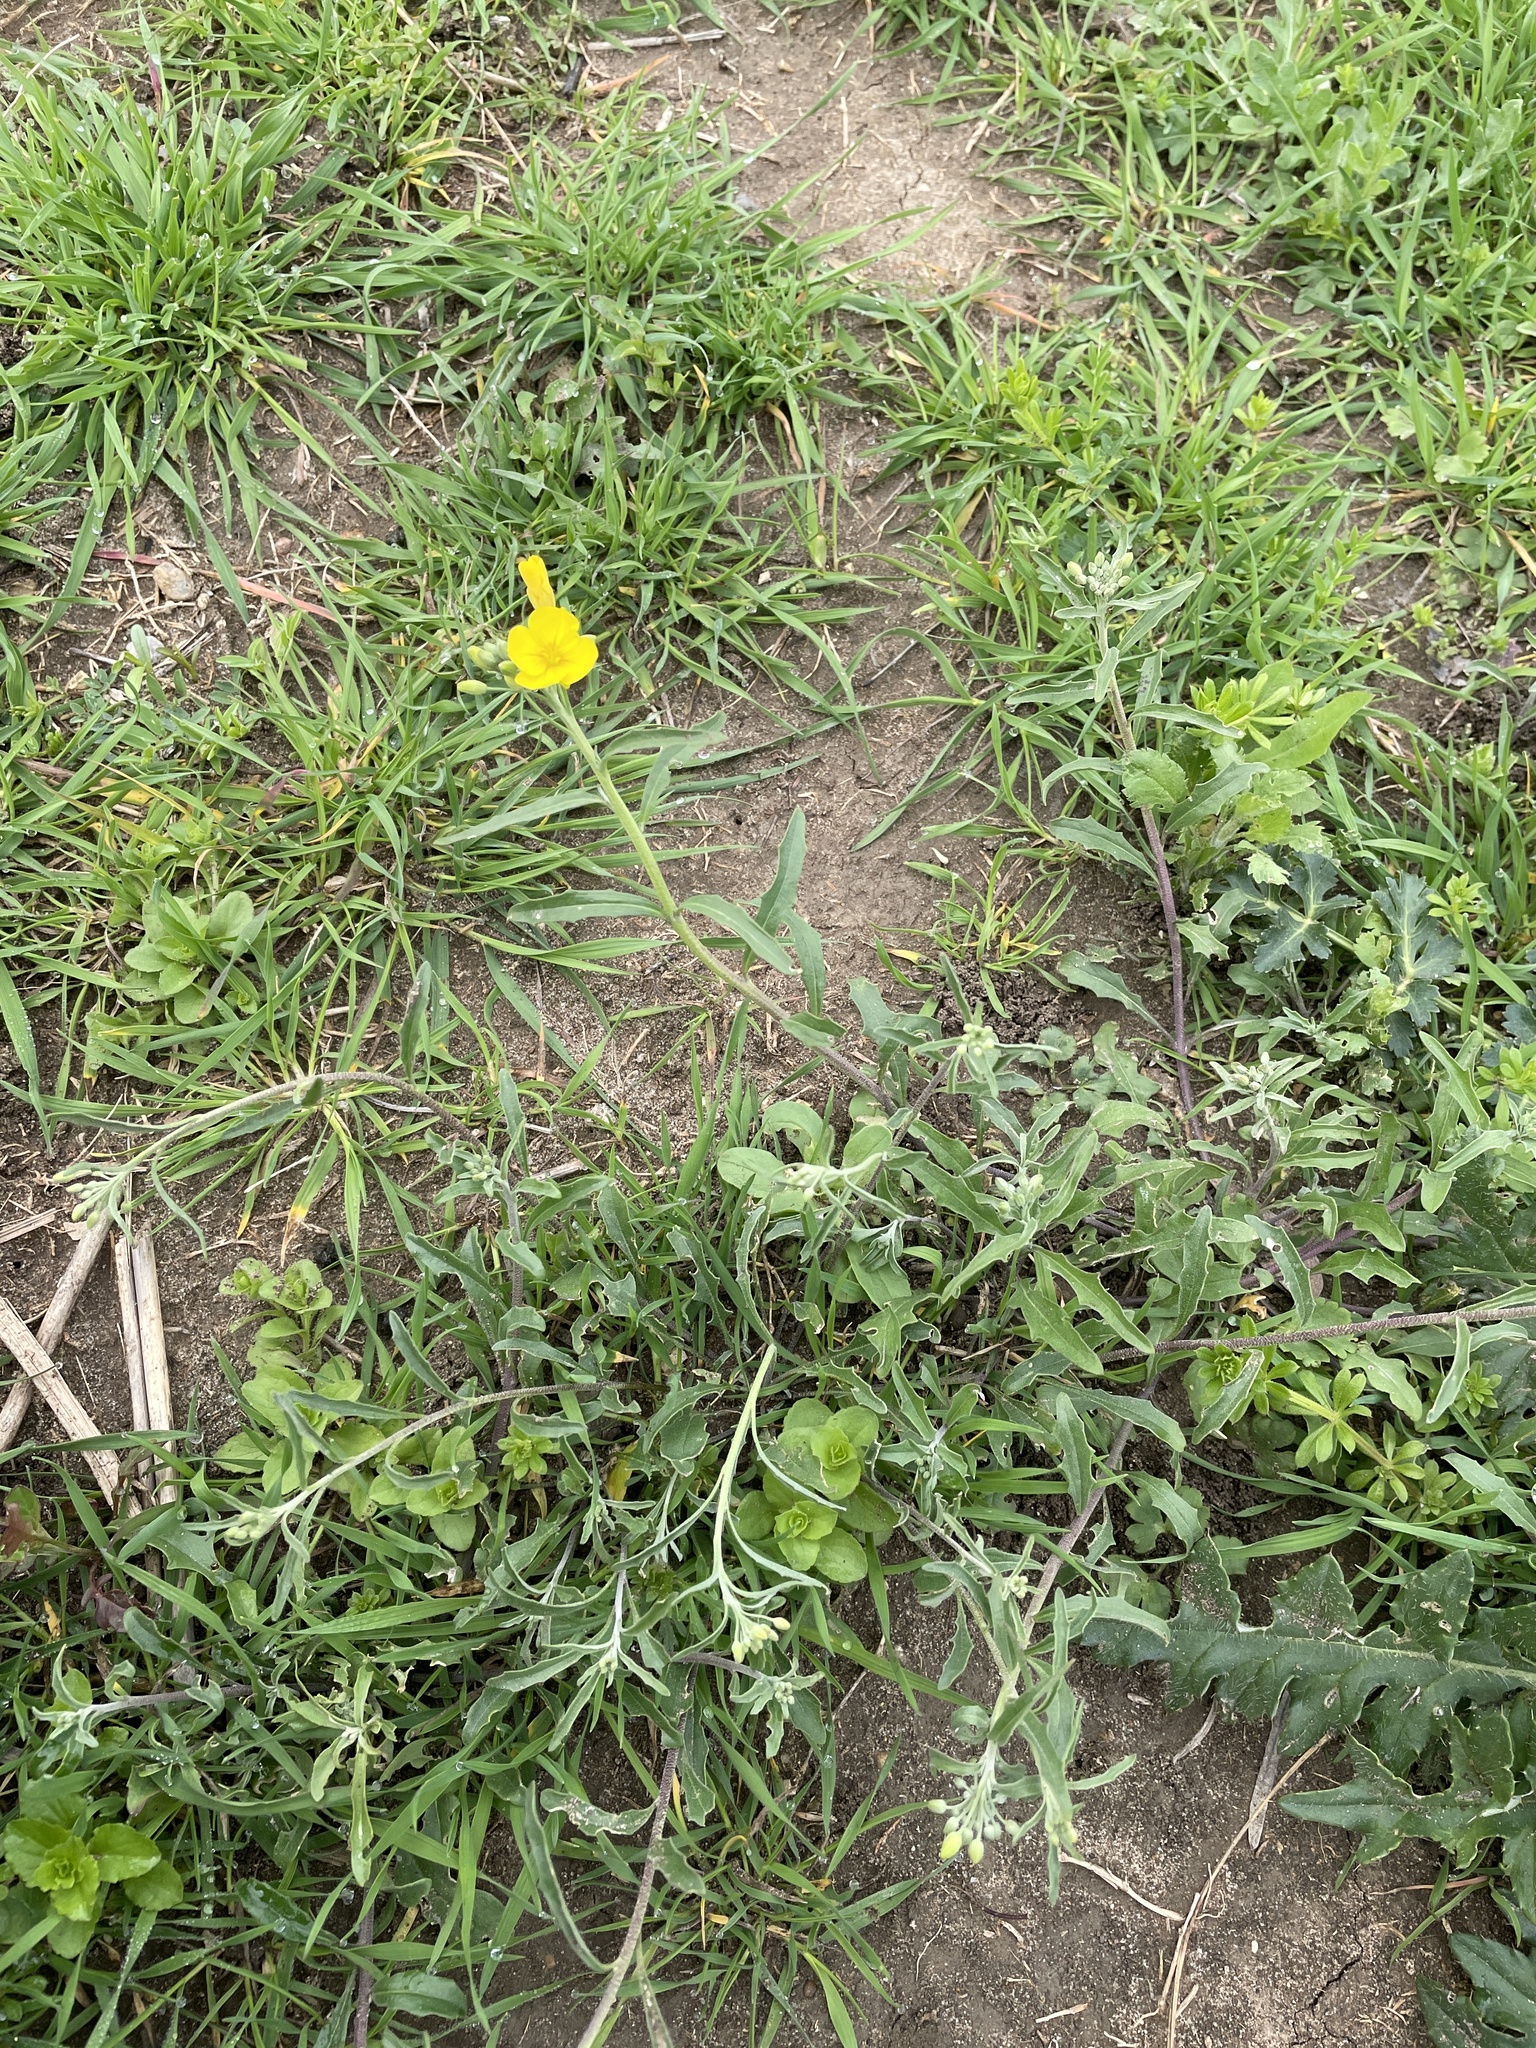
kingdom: Plantae
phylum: Tracheophyta
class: Magnoliopsida
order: Brassicales
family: Brassicaceae
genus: Physaria
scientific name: Physaria gracilis
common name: Spreading bladderpod
